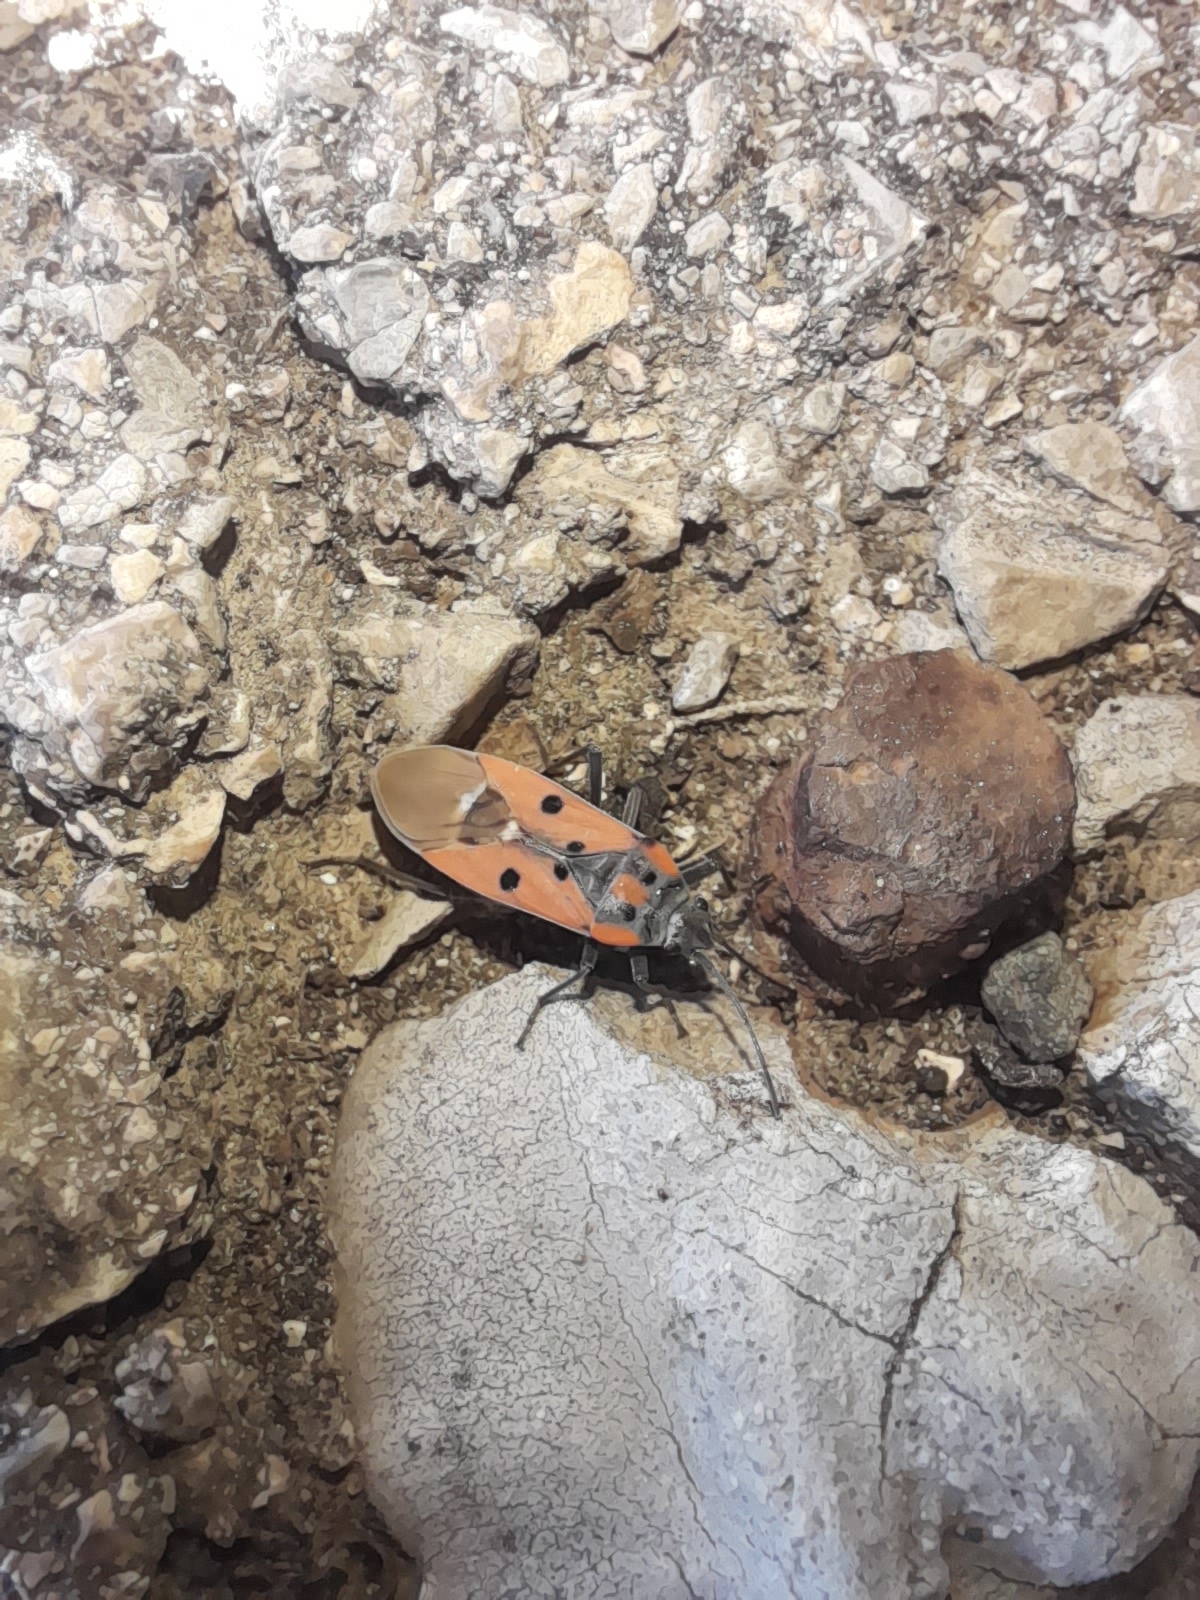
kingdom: Animalia
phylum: Arthropoda
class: Insecta
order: Hemiptera
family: Lygaeidae
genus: Lygaeus
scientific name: Lygaeus creticus
